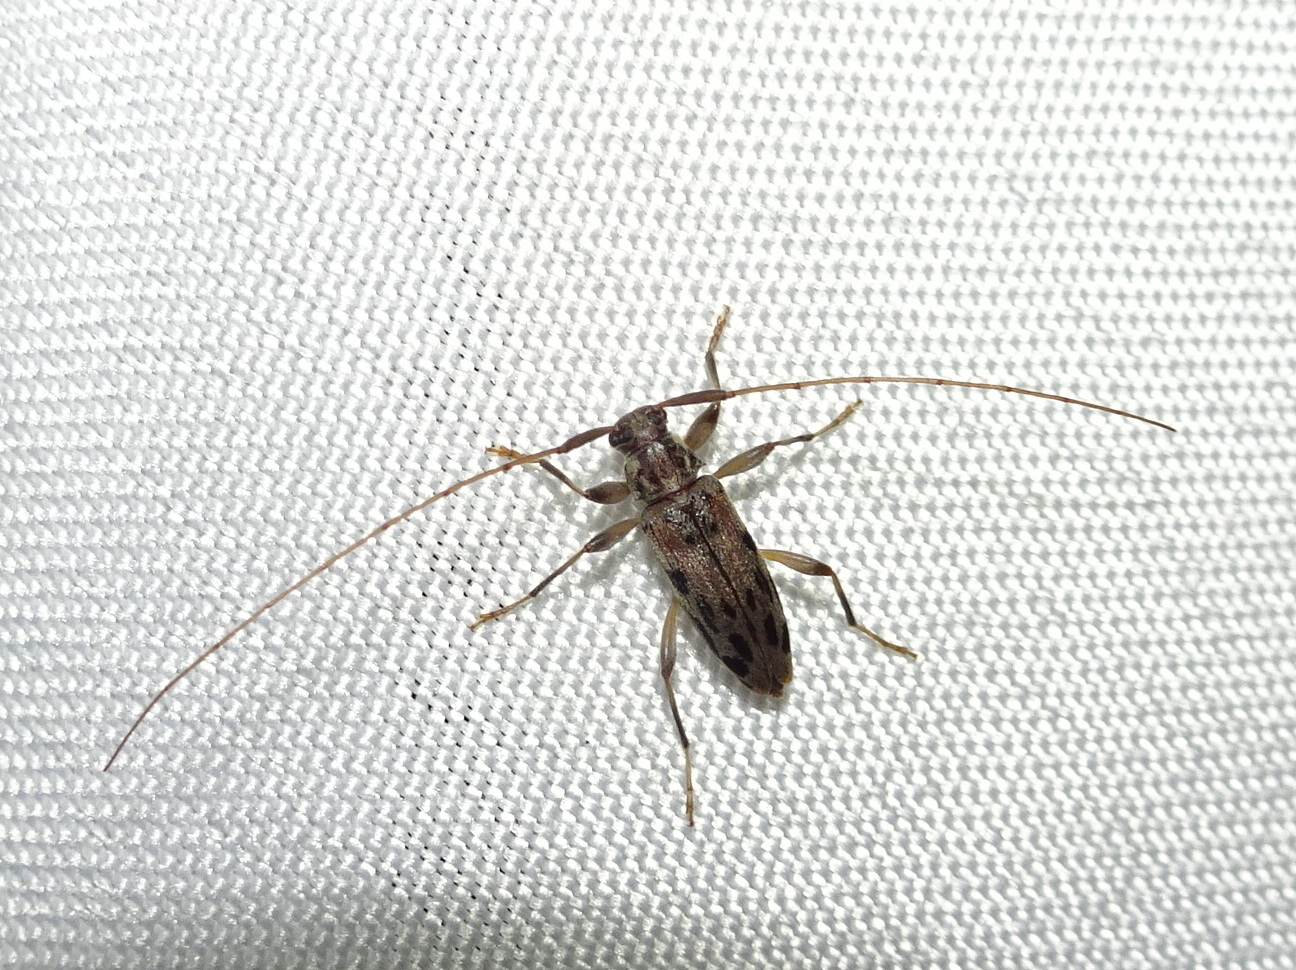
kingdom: Animalia
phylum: Arthropoda
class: Insecta
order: Coleoptera
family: Cerambycidae
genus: Lepturges
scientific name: Lepturges pictus
